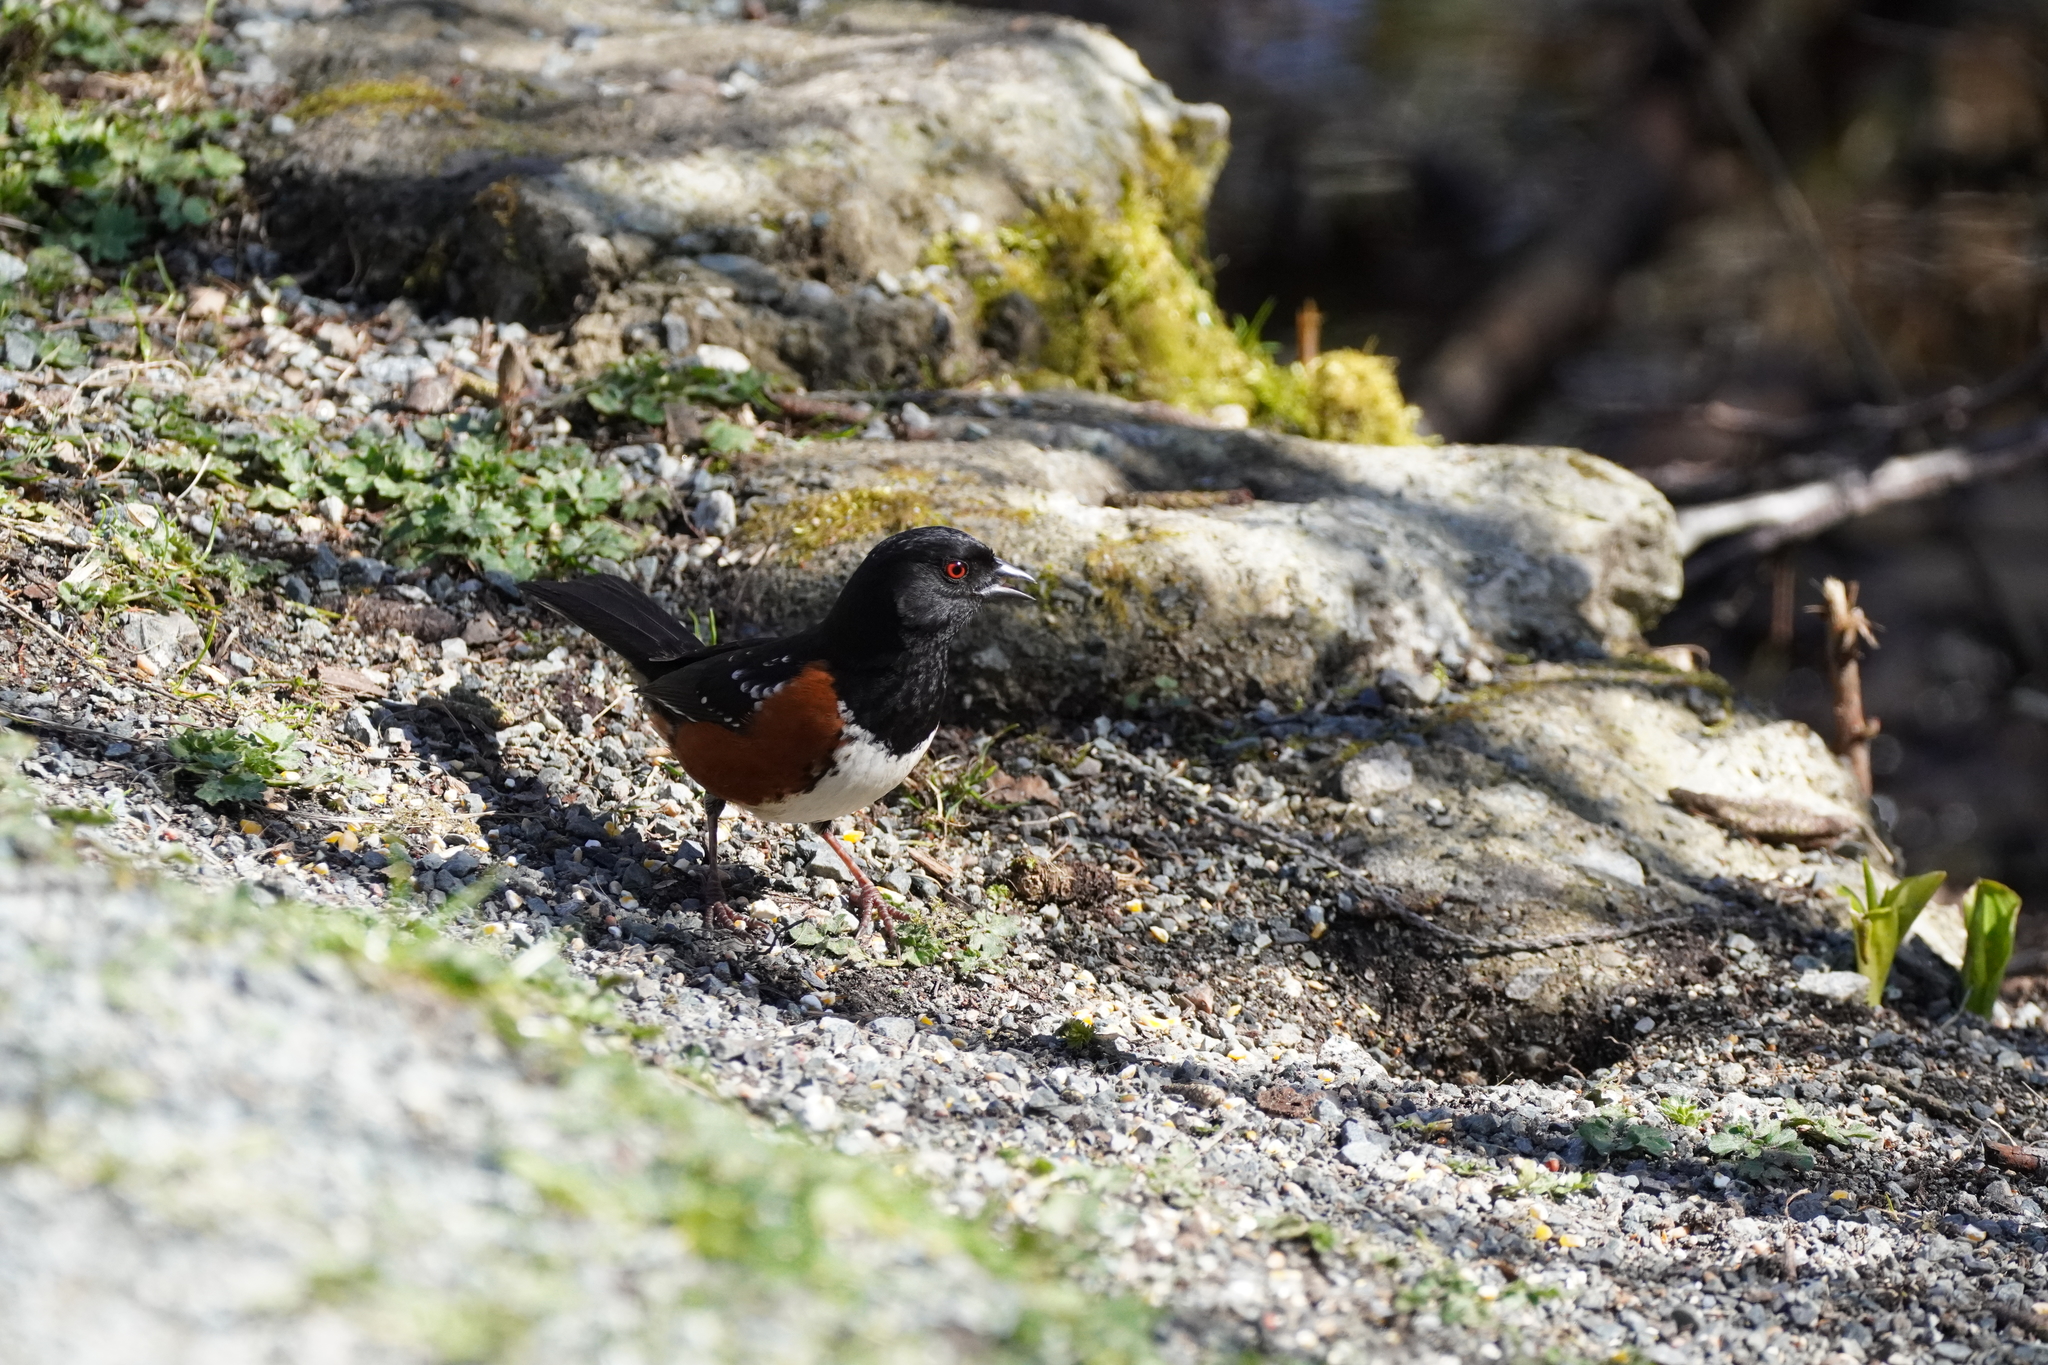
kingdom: Animalia
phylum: Chordata
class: Aves
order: Passeriformes
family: Passerellidae
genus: Pipilo
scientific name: Pipilo maculatus
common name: Spotted towhee
